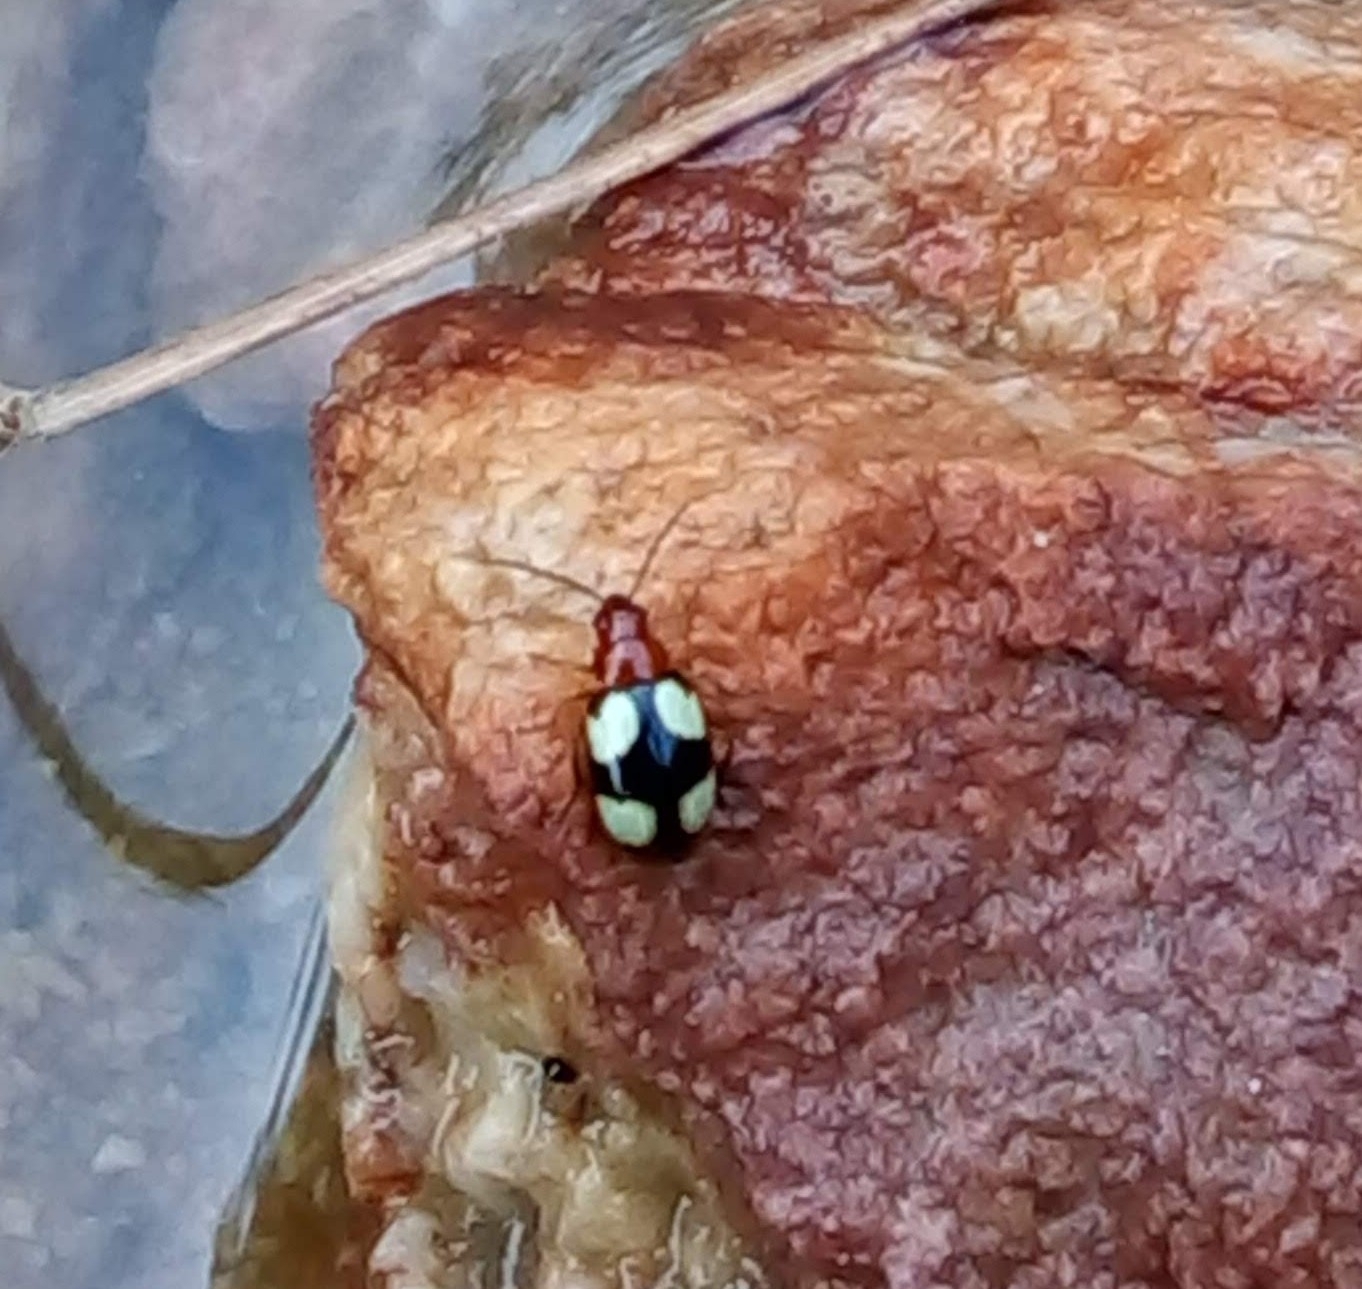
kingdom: Animalia
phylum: Arthropoda
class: Insecta
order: Coleoptera
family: Chrysomelidae
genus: Monolepta
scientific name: Monolepta signata
